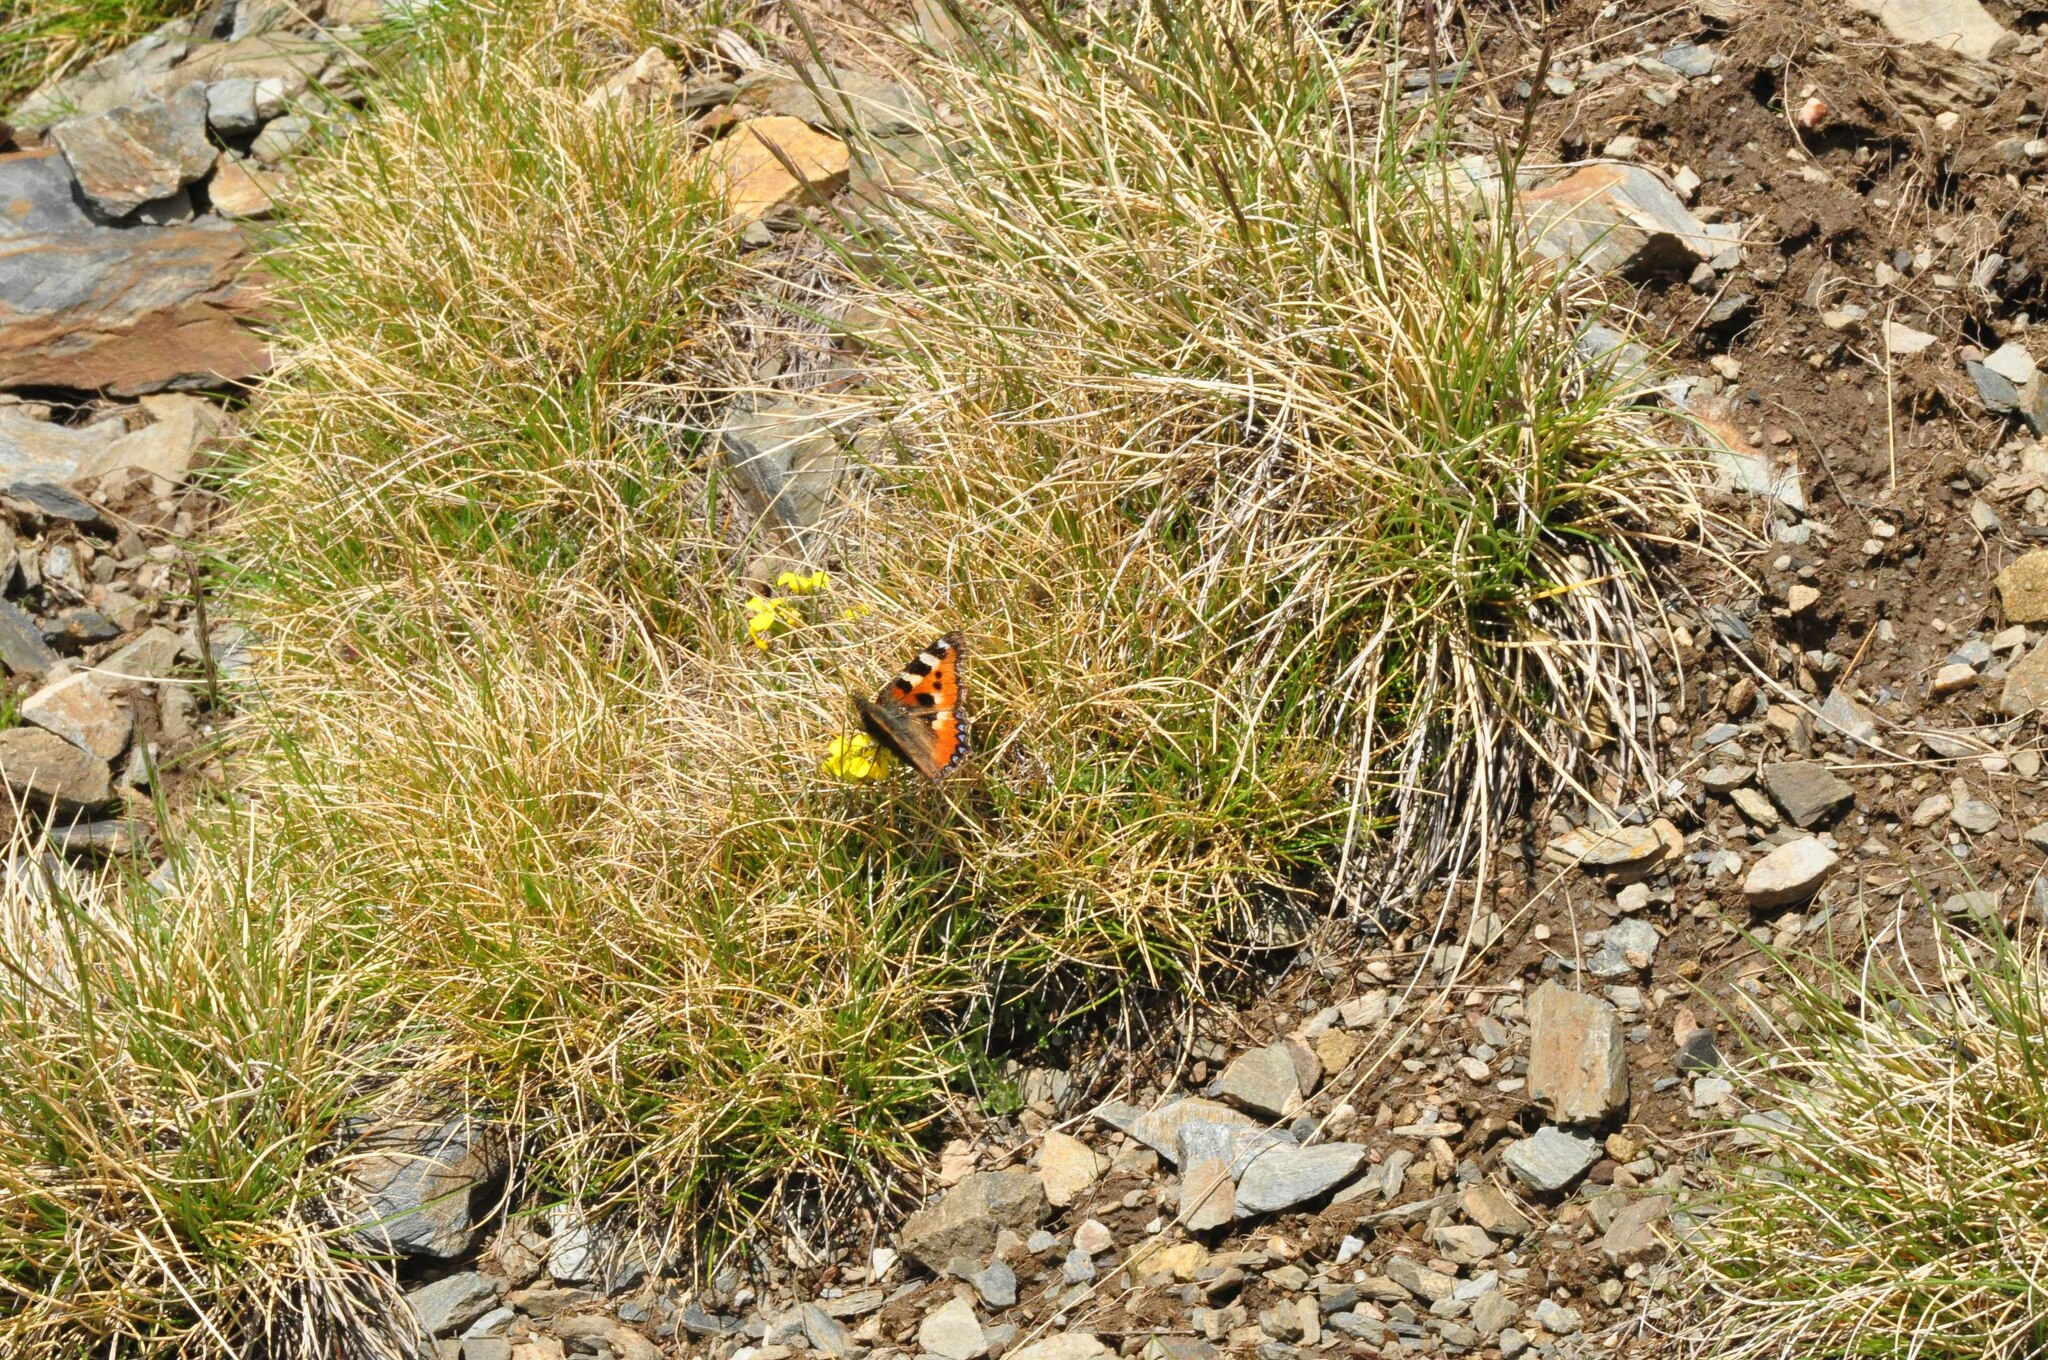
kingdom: Animalia
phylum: Arthropoda
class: Insecta
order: Lepidoptera
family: Nymphalidae
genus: Aglais
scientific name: Aglais urticae
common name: Small tortoiseshell
